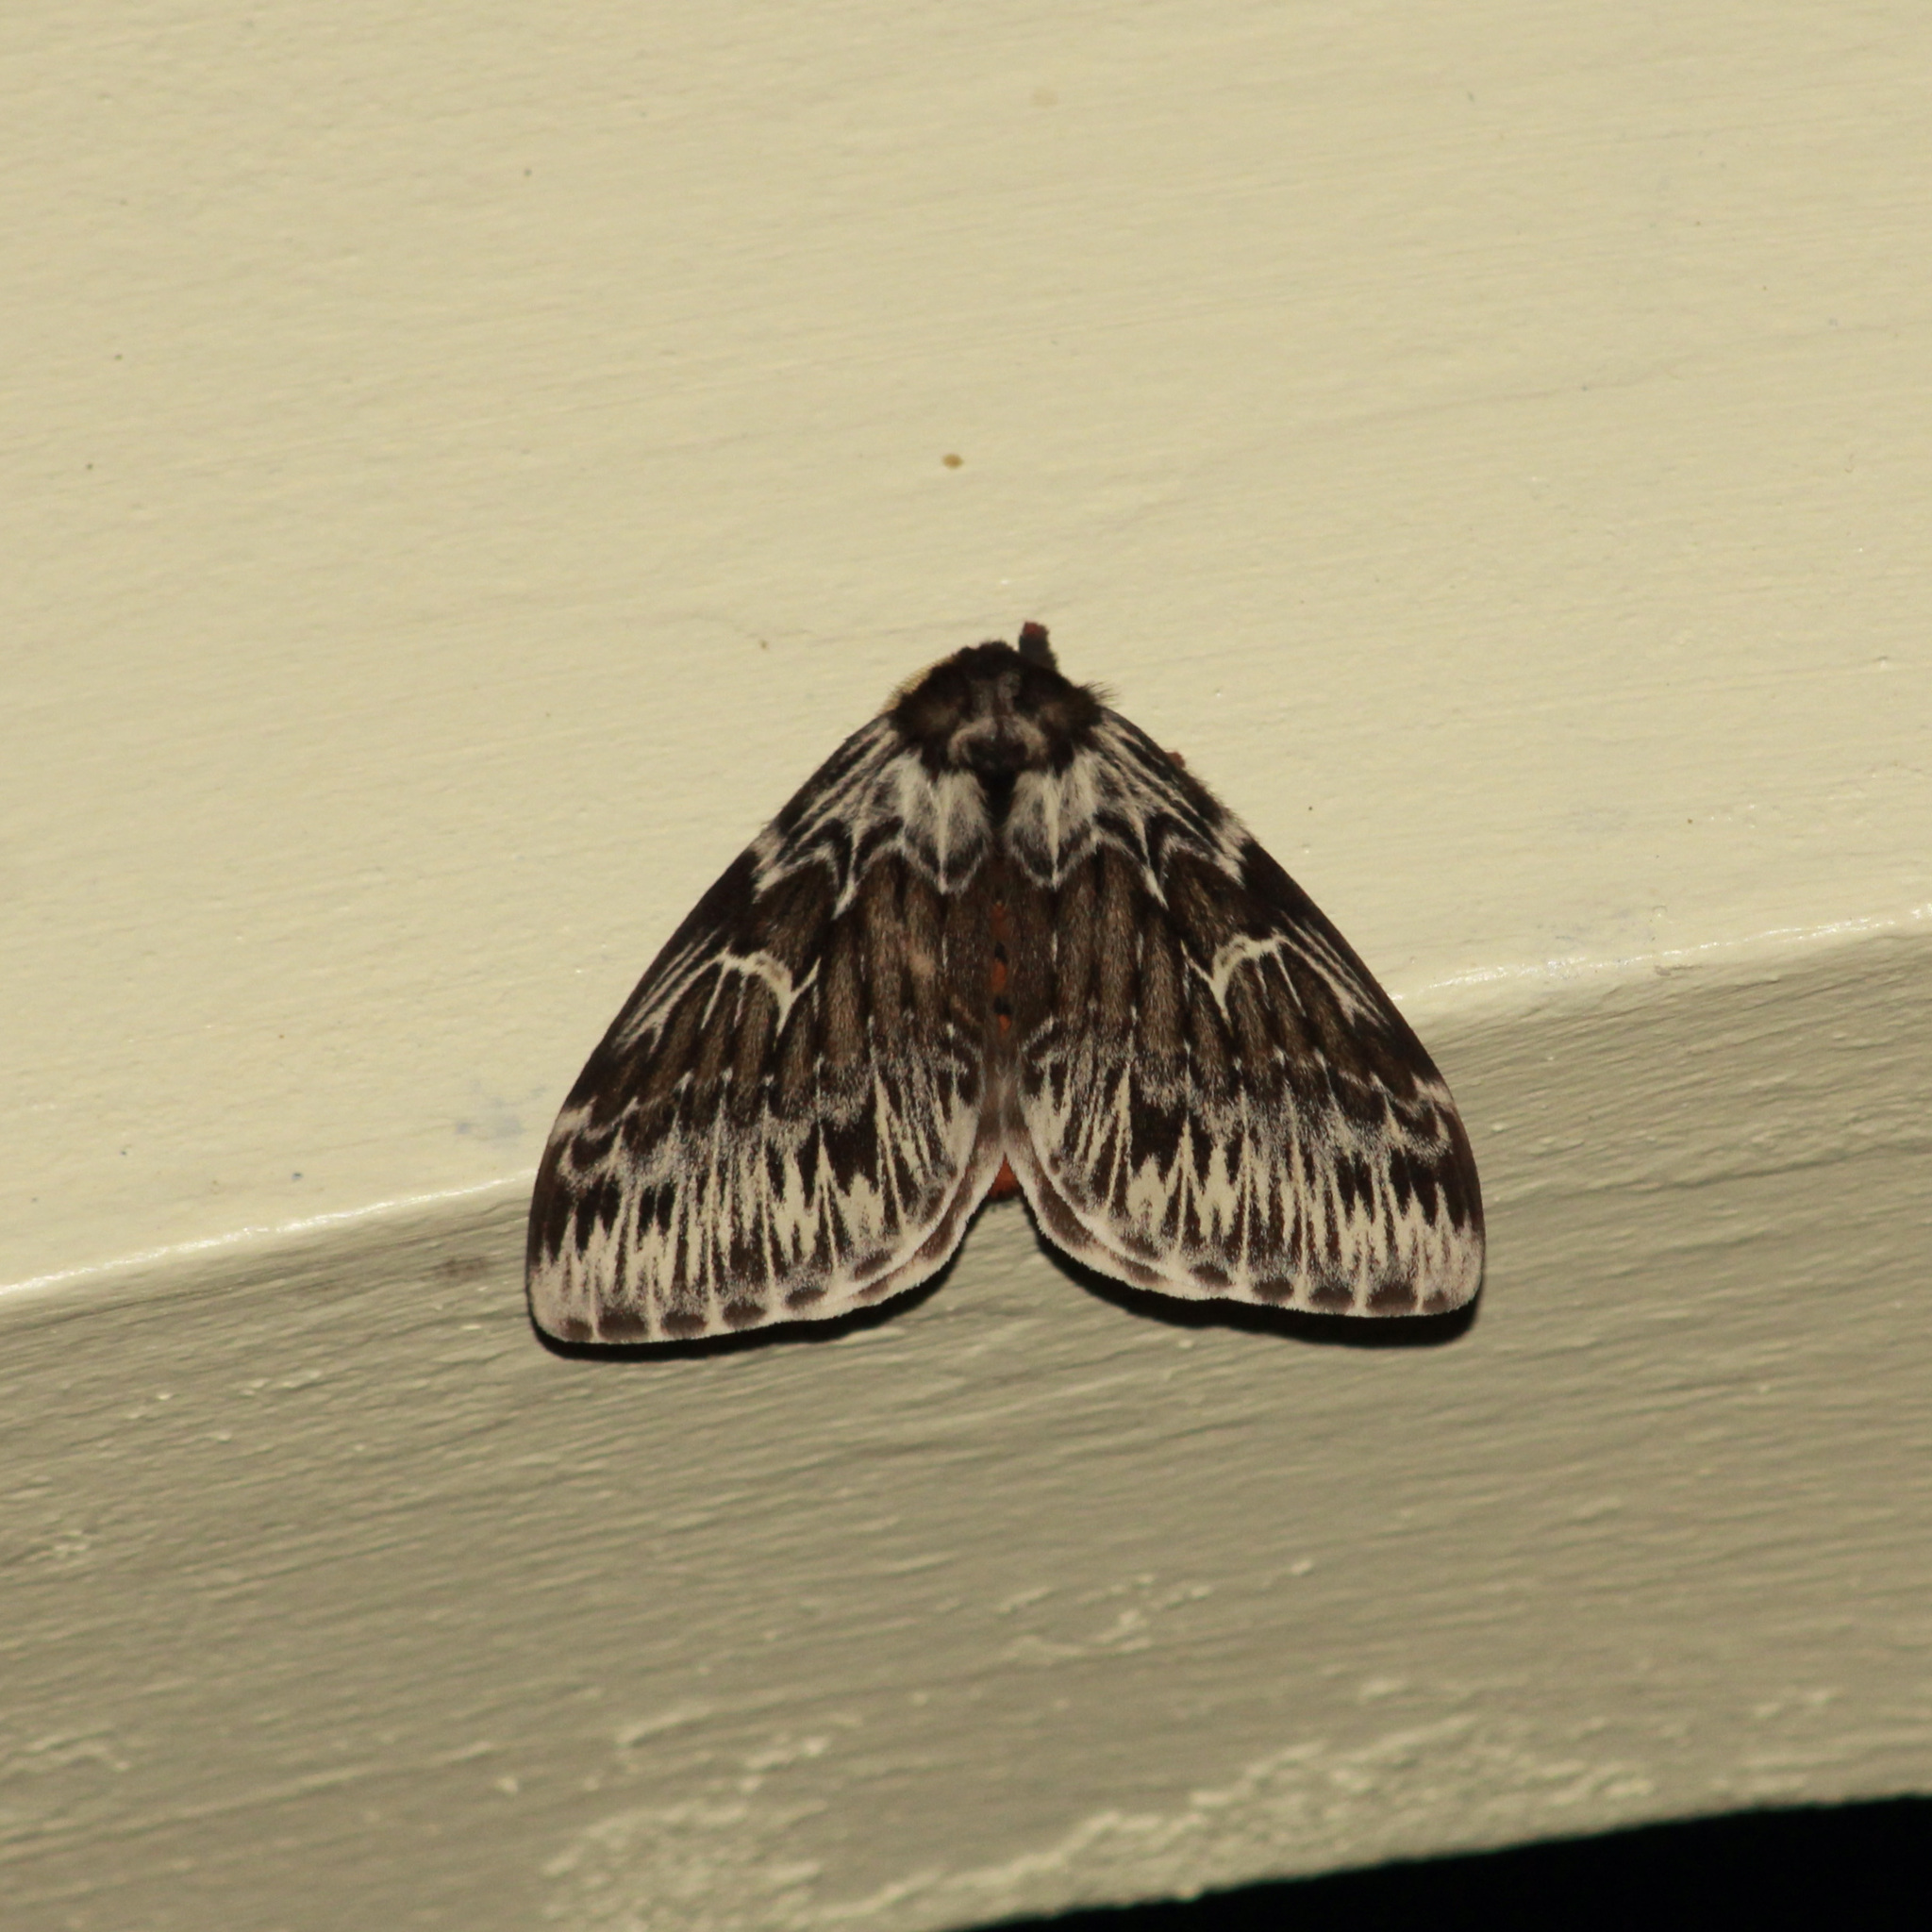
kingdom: Animalia
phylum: Arthropoda
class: Insecta
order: Lepidoptera
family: Saturniidae
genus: Dirphia
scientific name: Dirphia radiata
